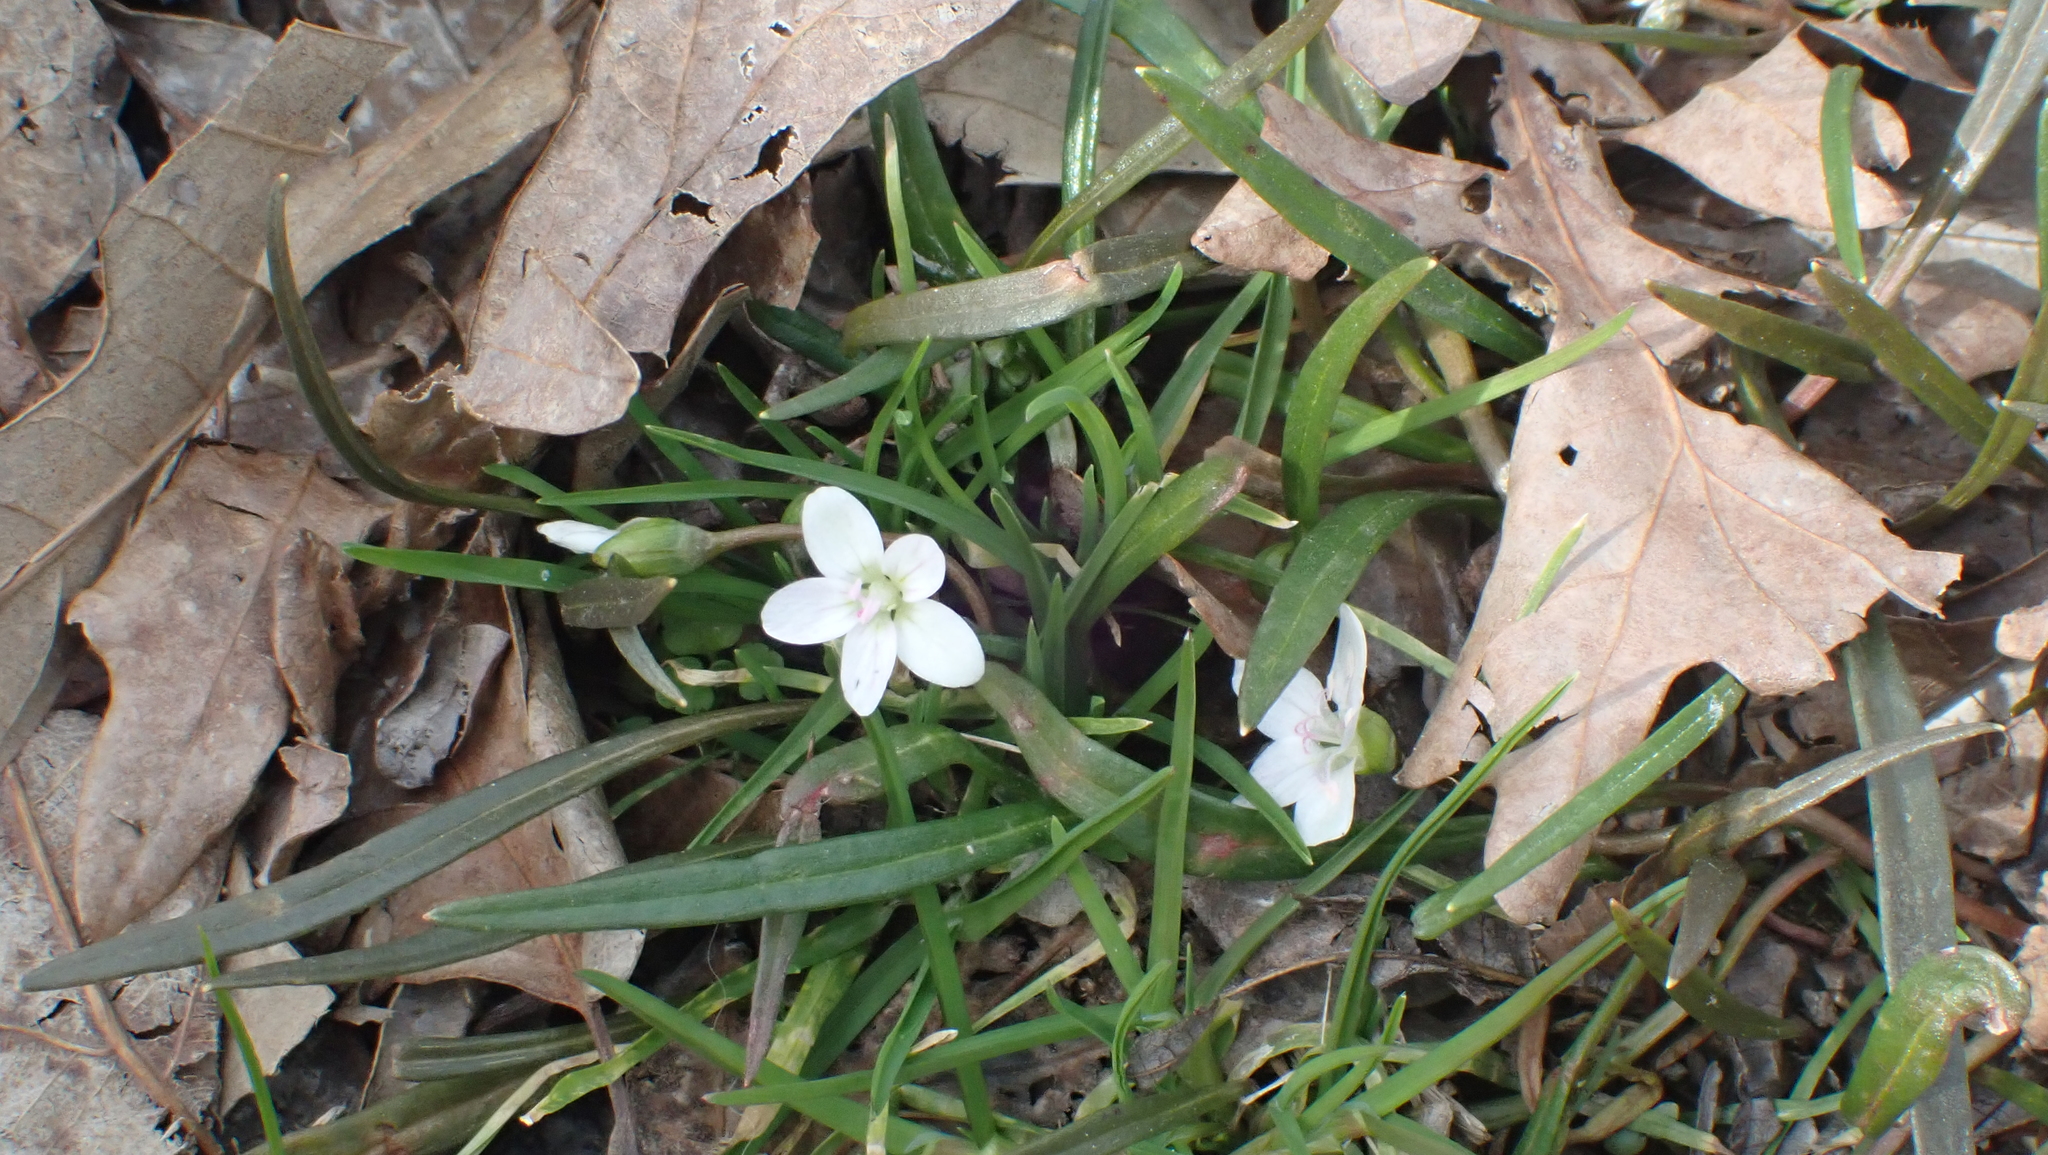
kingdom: Plantae
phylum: Tracheophyta
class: Magnoliopsida
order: Caryophyllales
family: Montiaceae
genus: Claytonia
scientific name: Claytonia virginica
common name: Virginia springbeauty
